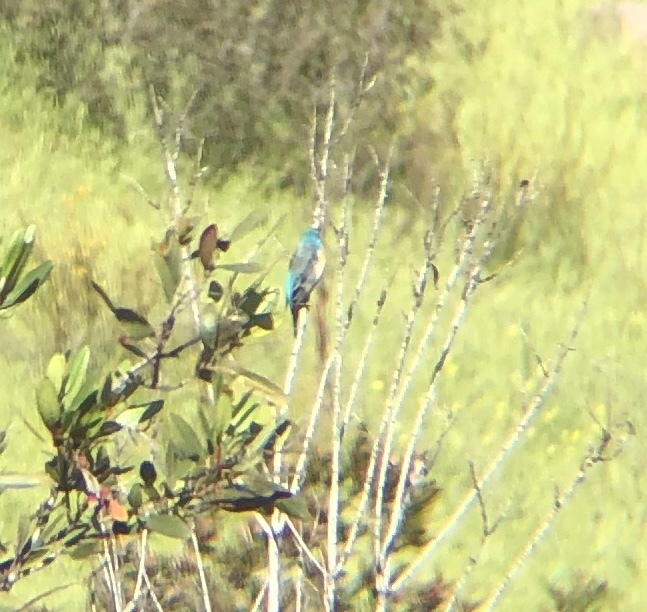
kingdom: Animalia
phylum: Chordata
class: Aves
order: Passeriformes
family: Cardinalidae
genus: Passerina
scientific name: Passerina amoena
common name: Lazuli bunting
